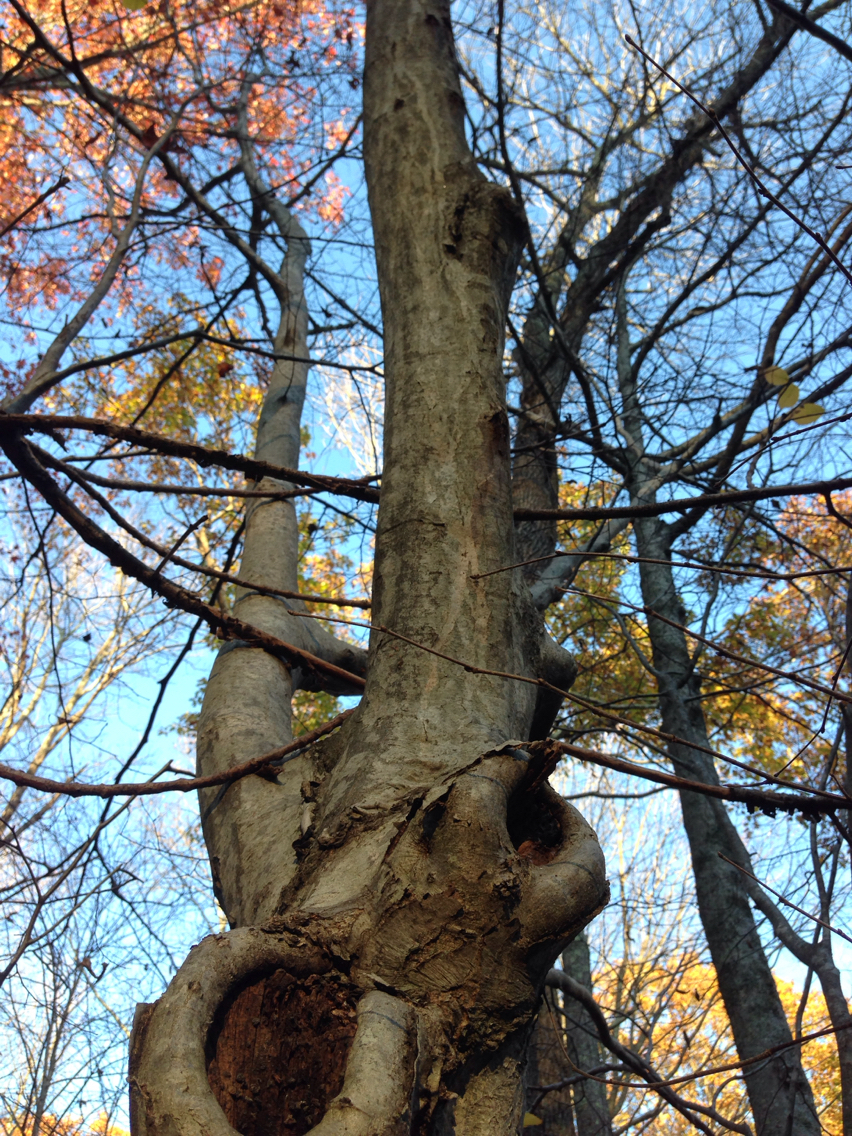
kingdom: Plantae
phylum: Tracheophyta
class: Magnoliopsida
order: Fagales
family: Betulaceae
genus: Carpinus
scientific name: Carpinus caroliniana
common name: American hornbeam
